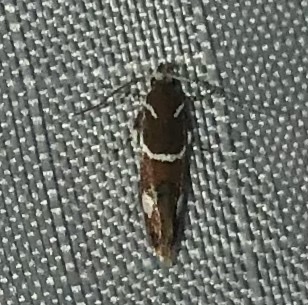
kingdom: Animalia
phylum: Arthropoda
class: Insecta
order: Lepidoptera
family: Oecophoridae
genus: Promalactis
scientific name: Promalactis suzukiella
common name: Moth
